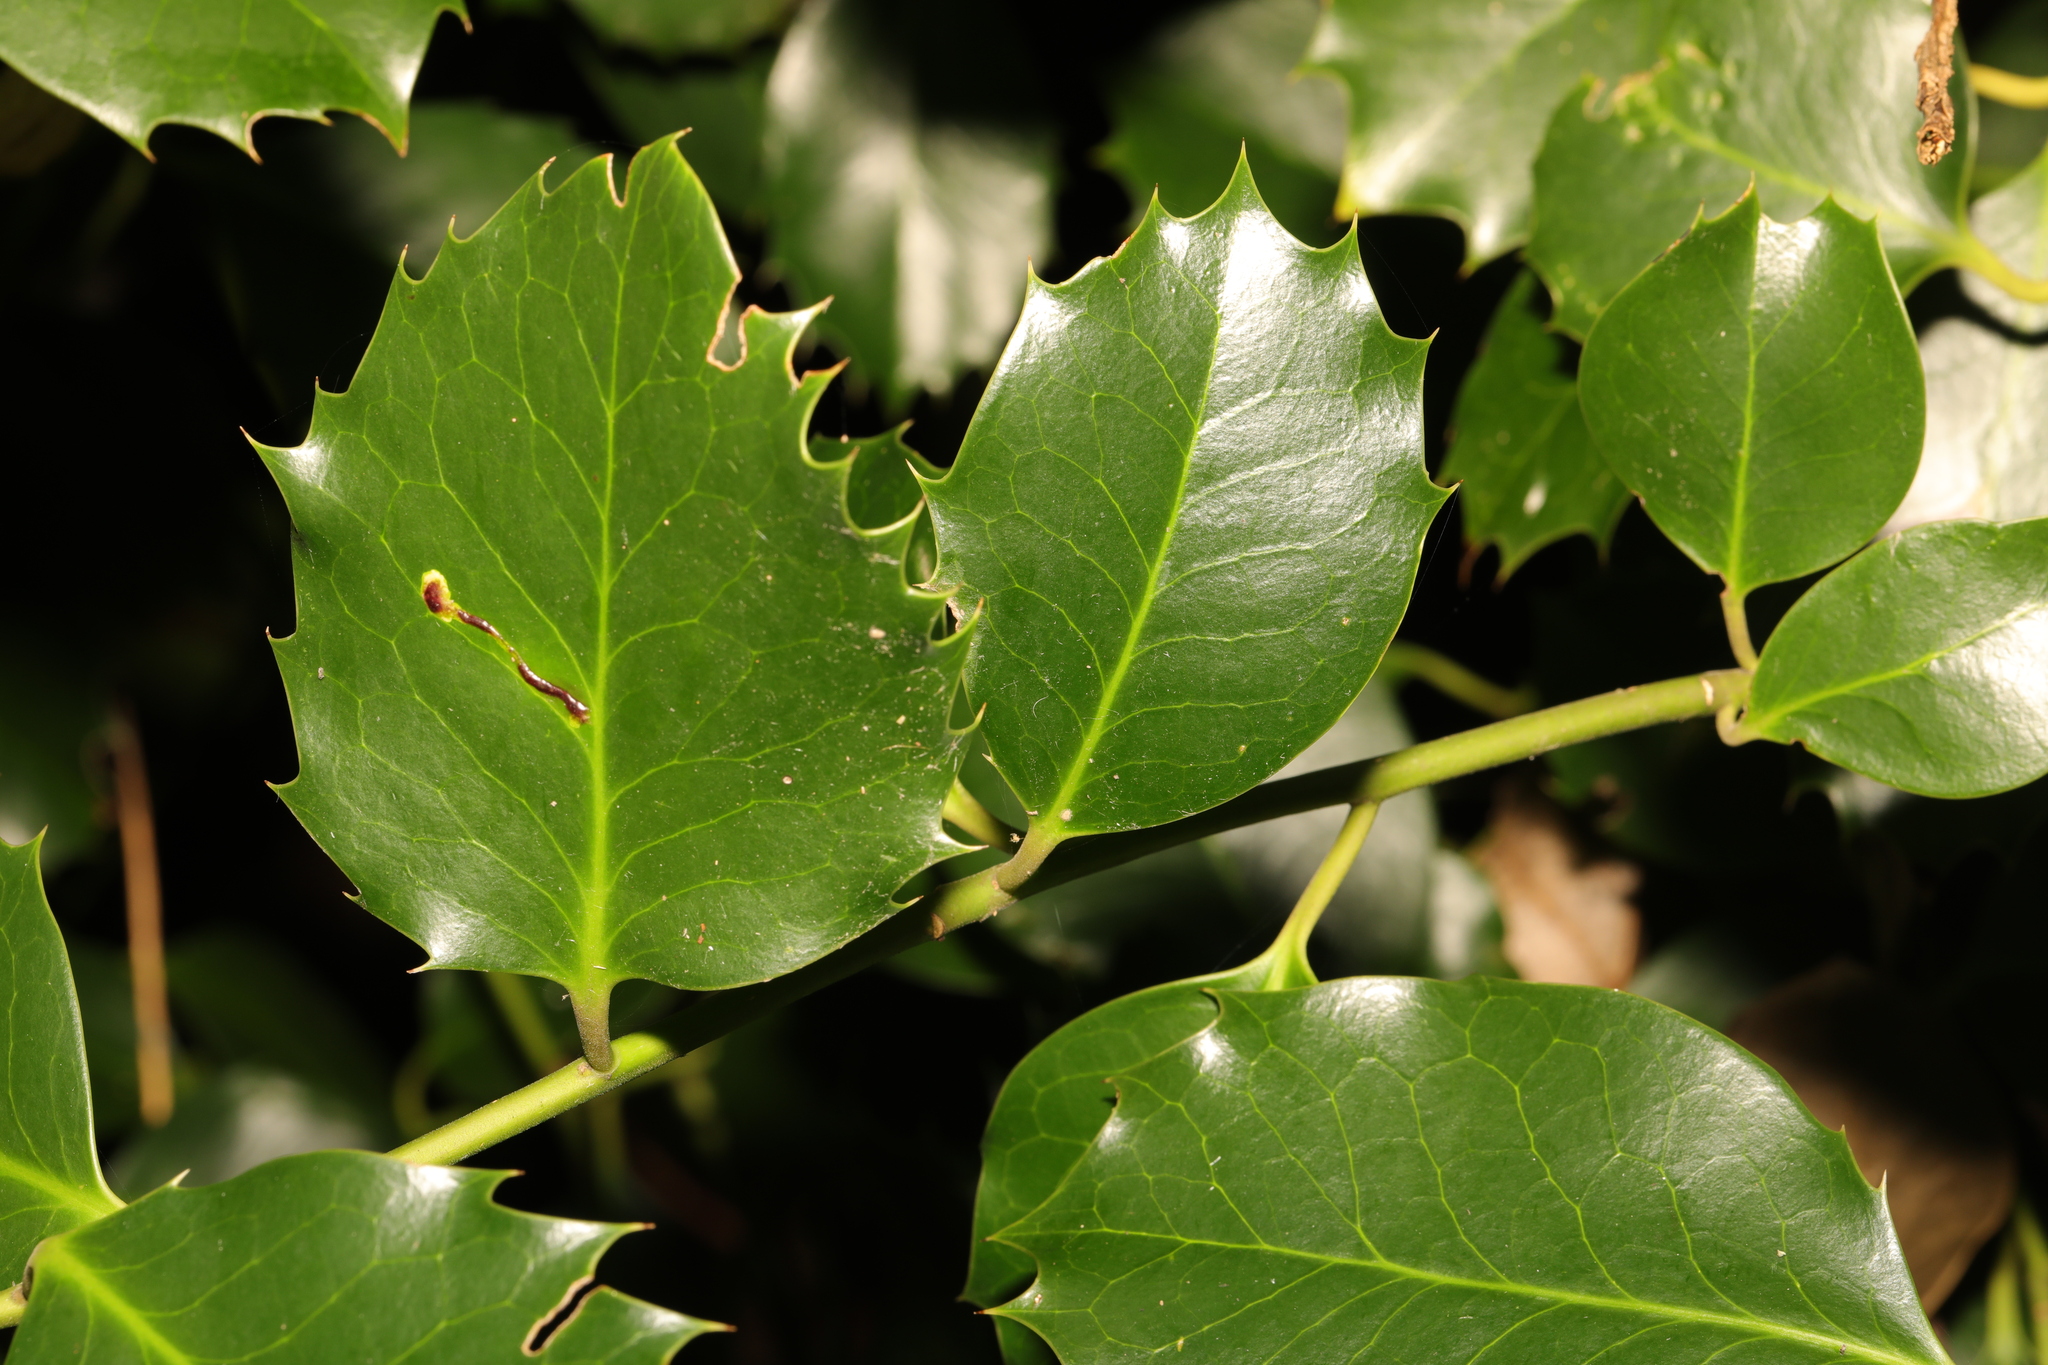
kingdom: Plantae
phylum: Tracheophyta
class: Magnoliopsida
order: Aquifoliales
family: Aquifoliaceae
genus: Ilex
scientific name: Ilex aquifolium
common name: English holly
